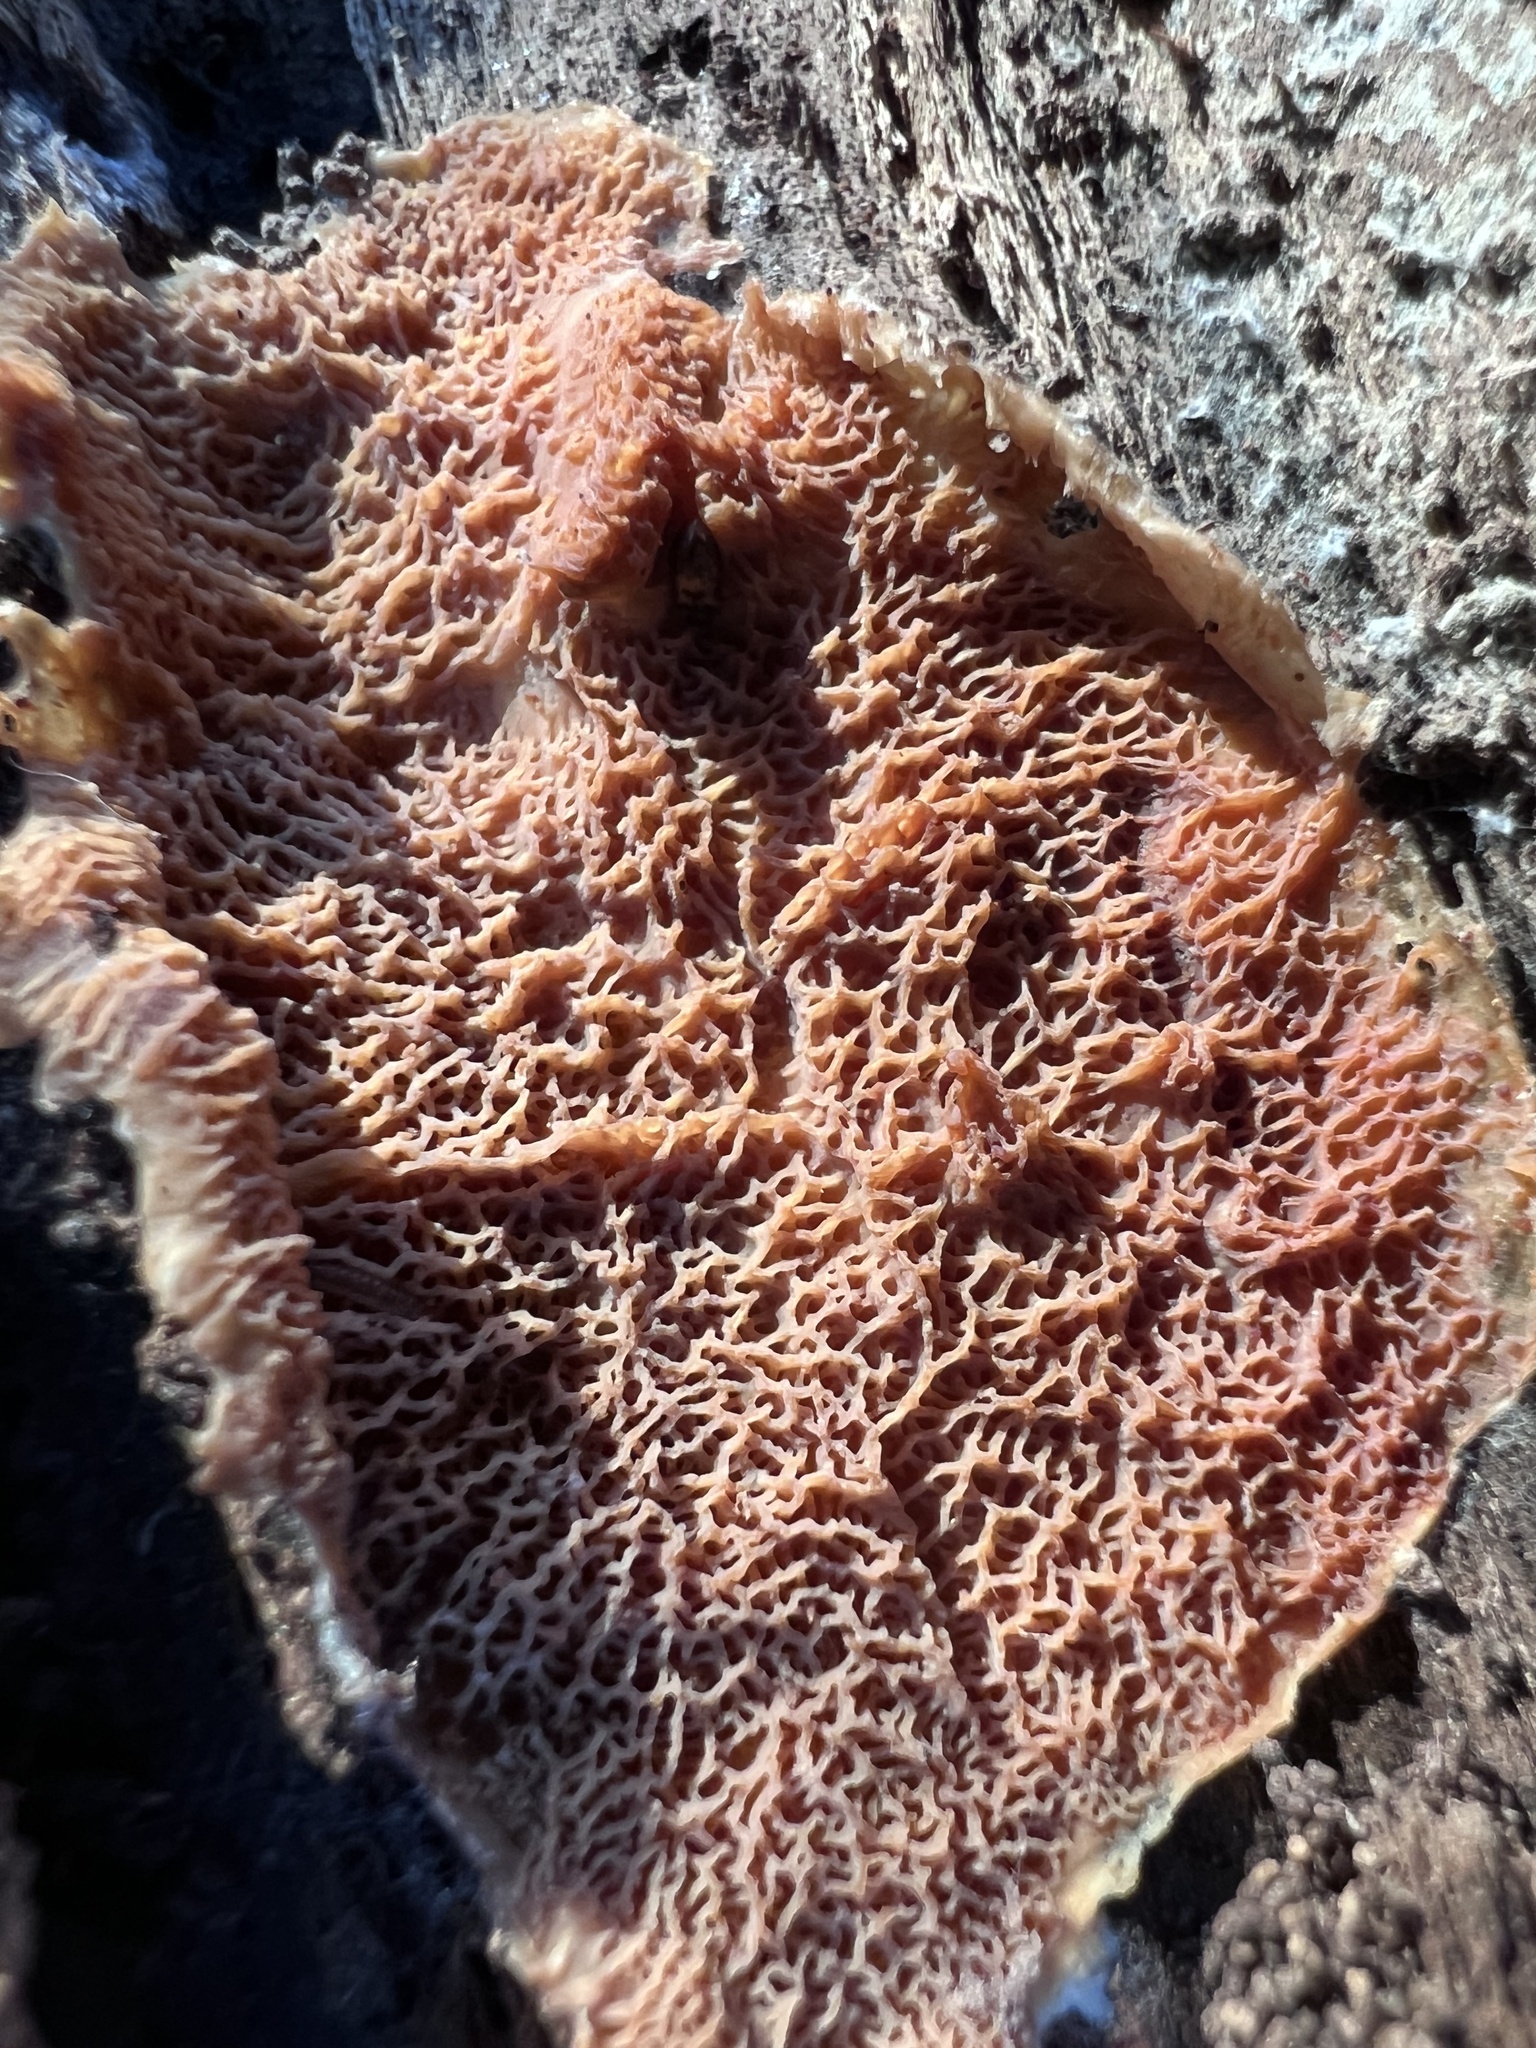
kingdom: Fungi
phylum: Basidiomycota
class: Agaricomycetes
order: Polyporales
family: Meruliaceae
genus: Phlebia
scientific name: Phlebia tremellosa
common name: Jelly rot
